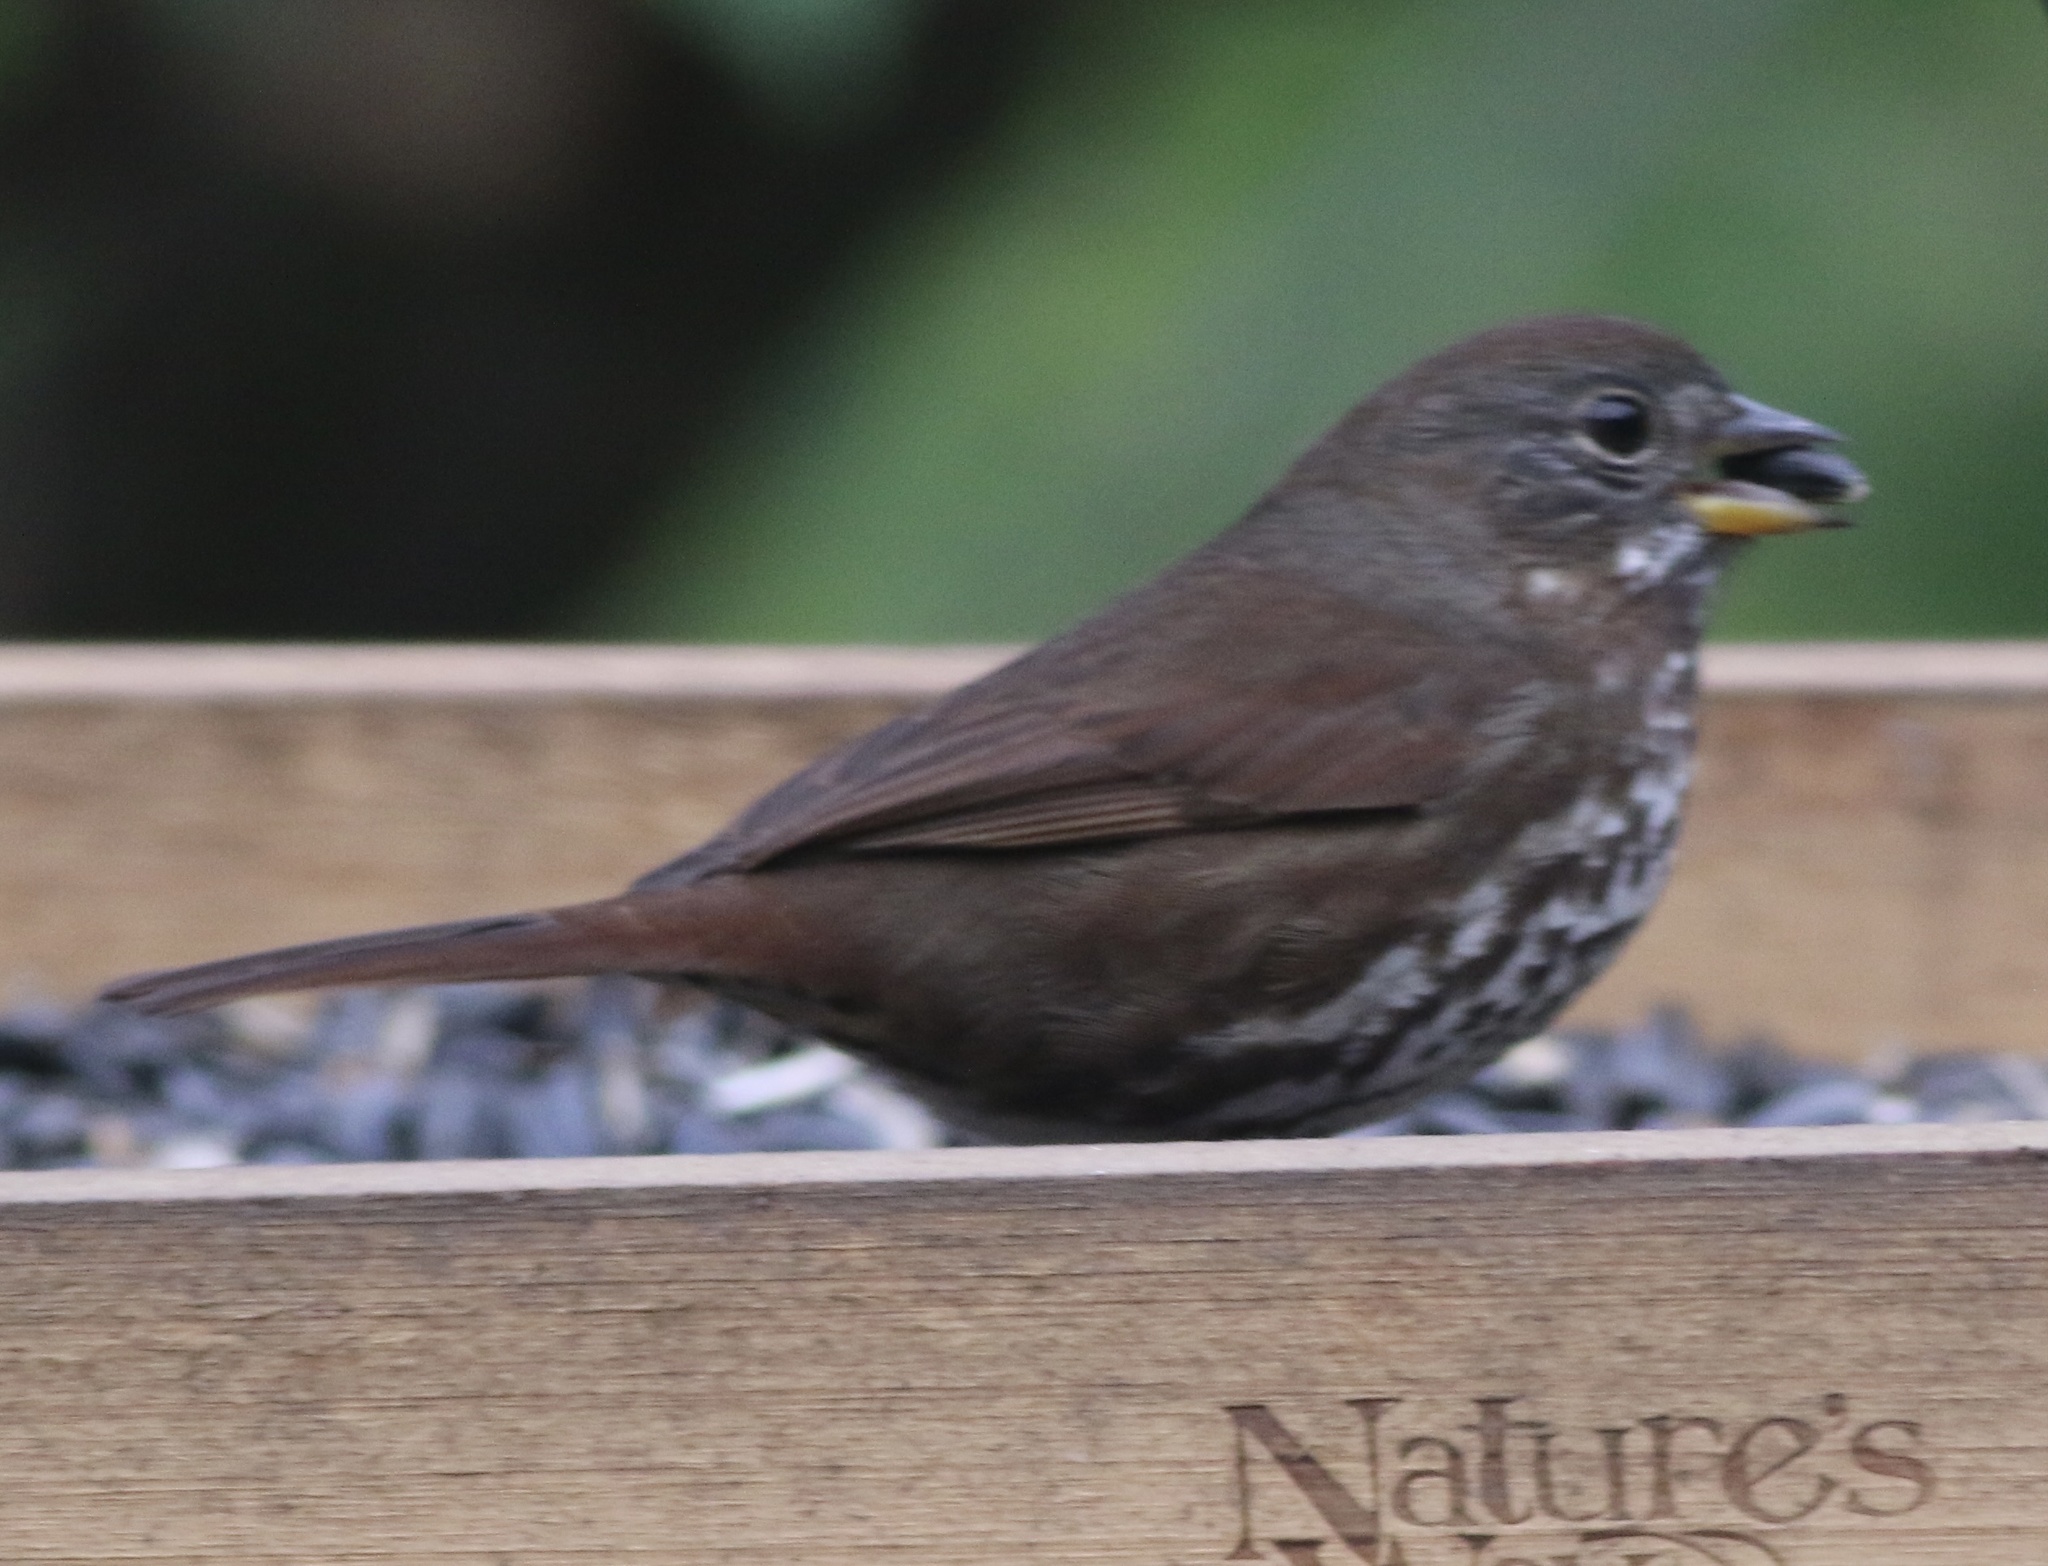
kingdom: Animalia
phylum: Chordata
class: Aves
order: Passeriformes
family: Passerellidae
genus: Passerella
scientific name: Passerella iliaca
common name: Fox sparrow
